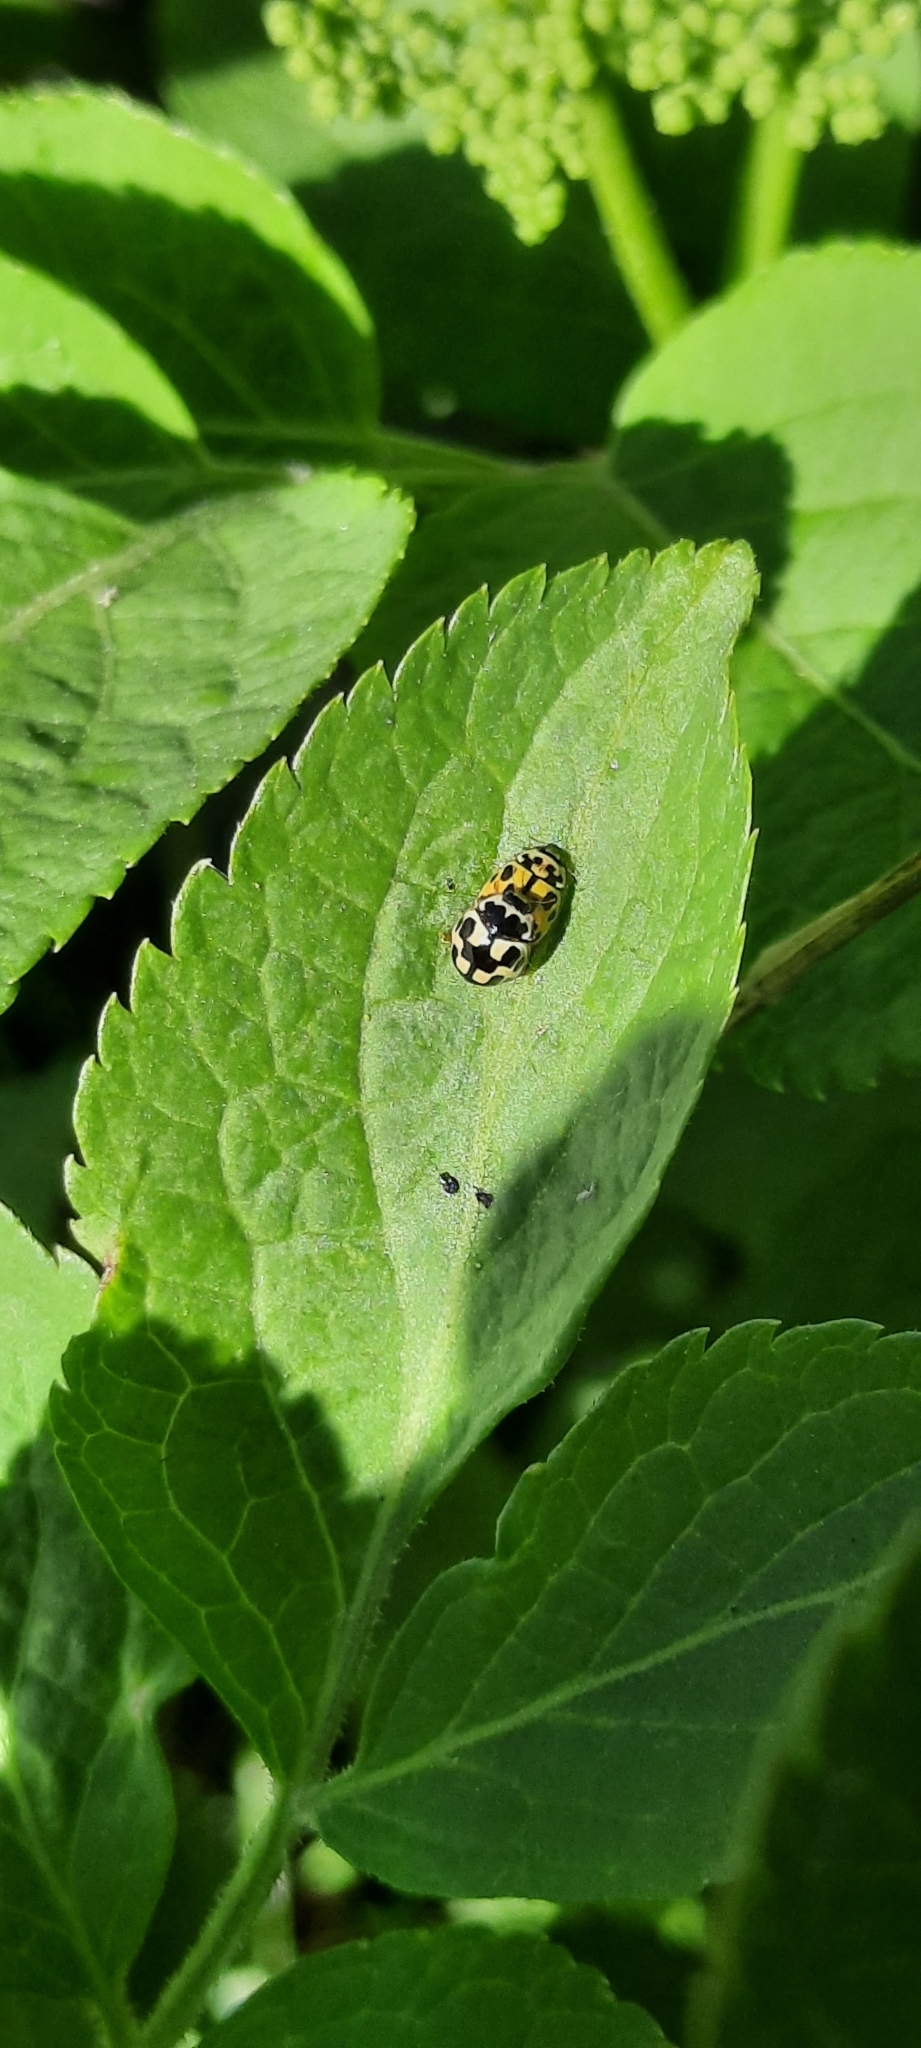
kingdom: Animalia
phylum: Arthropoda
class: Insecta
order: Coleoptera
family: Coccinellidae
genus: Propylaea
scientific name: Propylaea quatuordecimpunctata
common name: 14-spotted ladybird beetle
